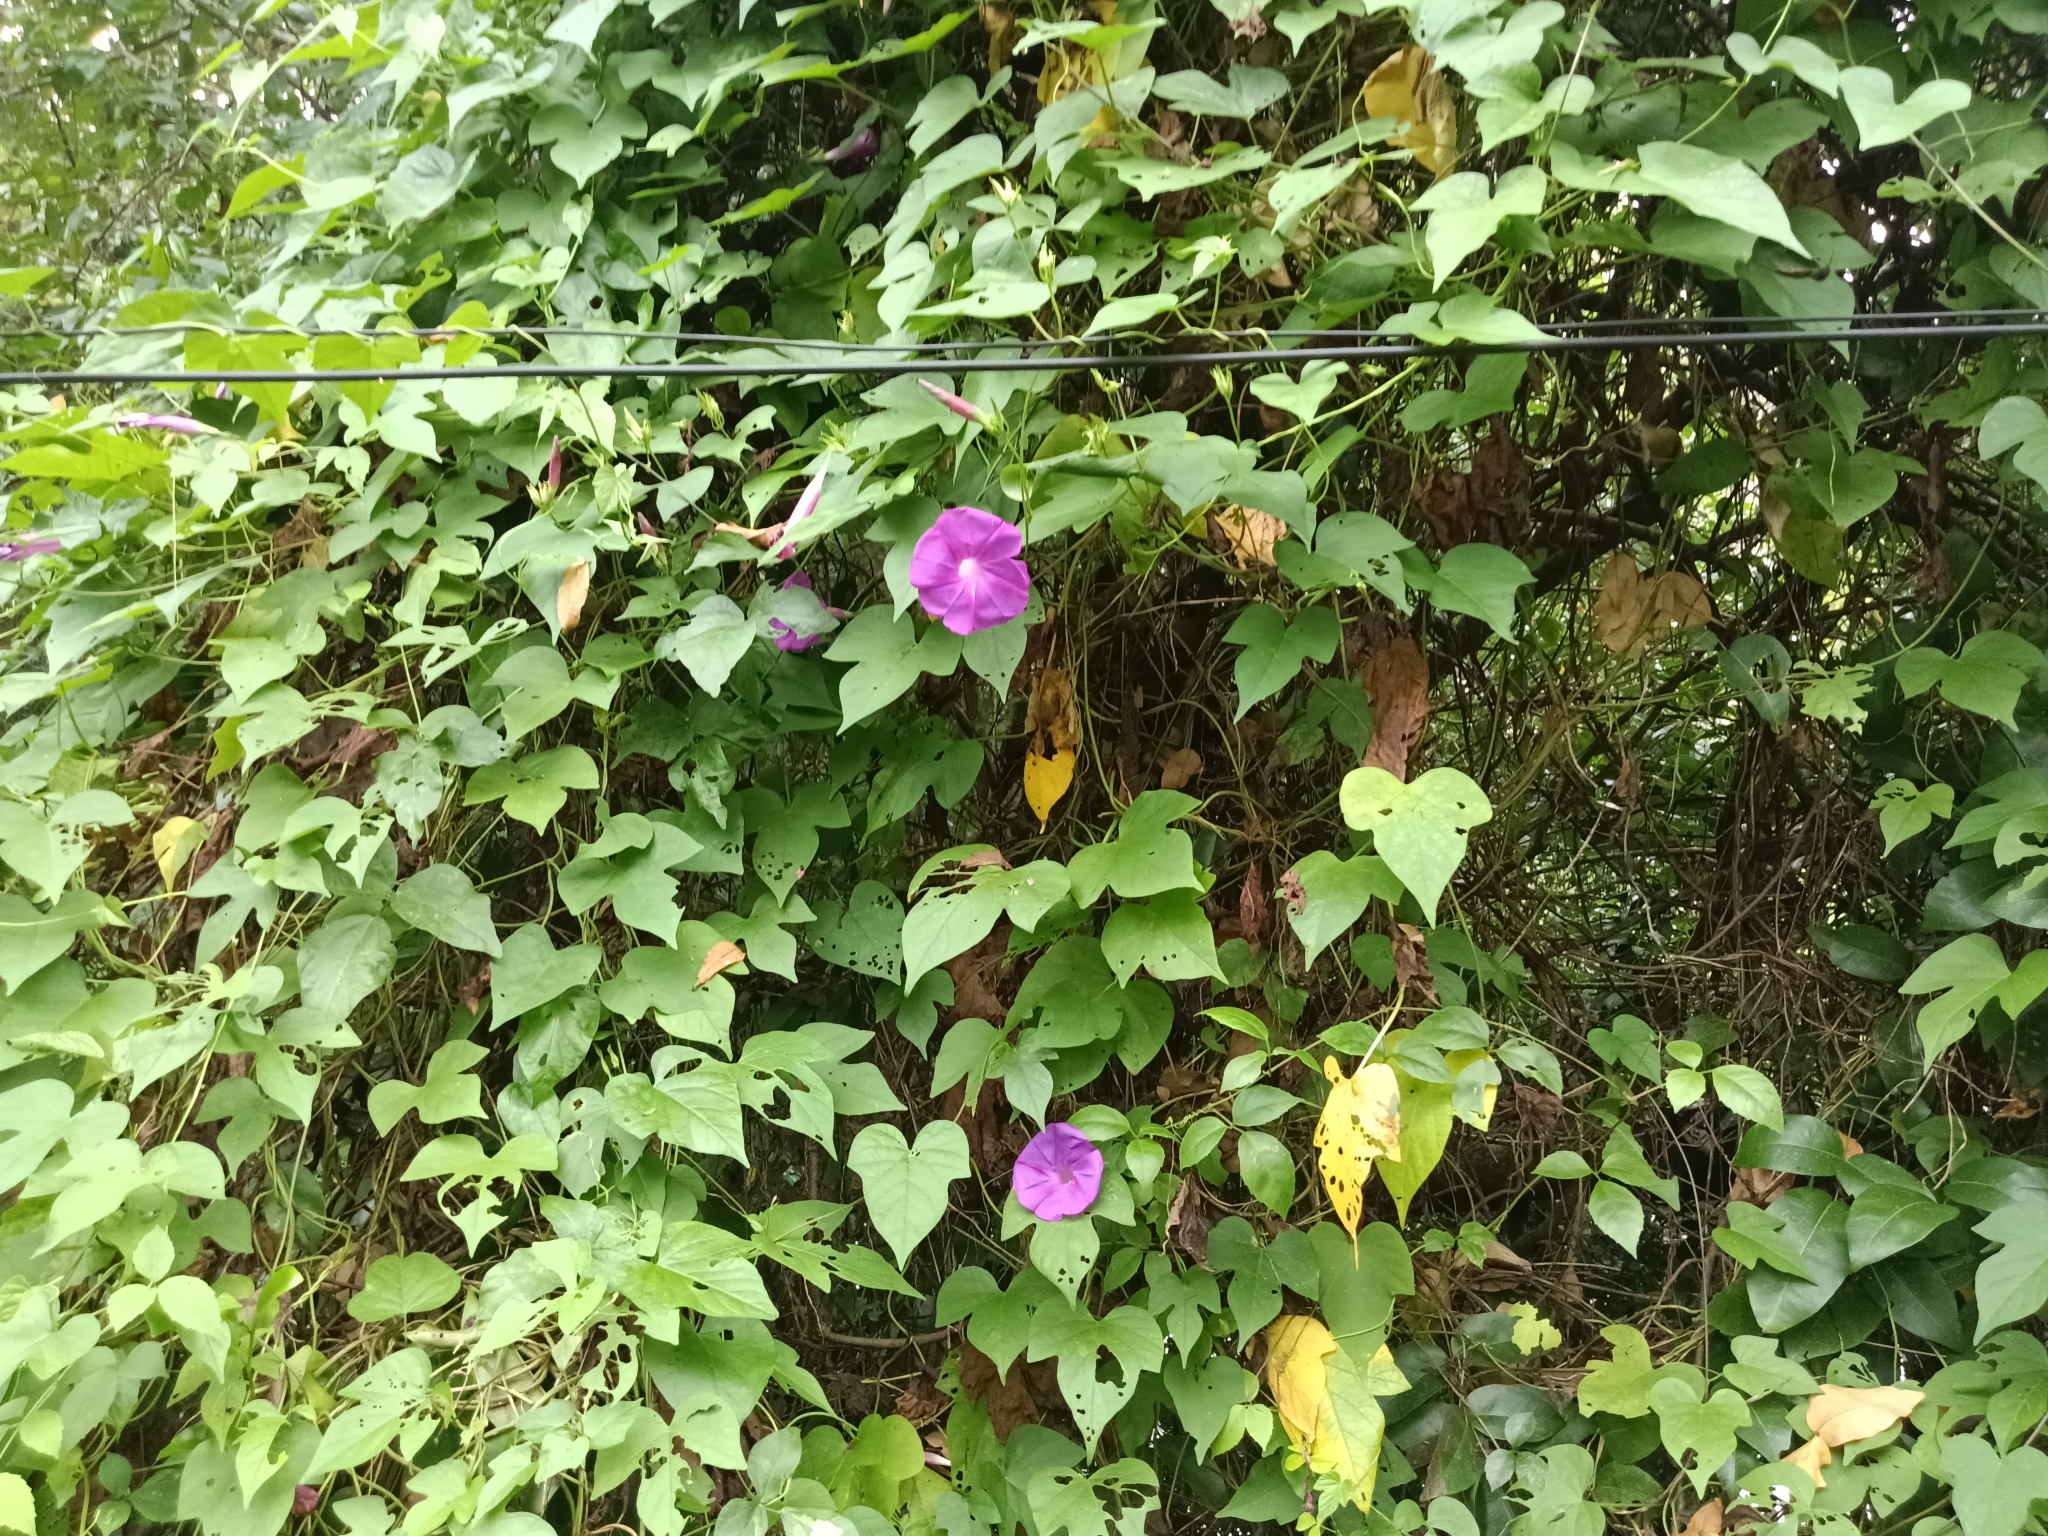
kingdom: Plantae
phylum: Tracheophyta
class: Magnoliopsida
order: Solanales
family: Convolvulaceae
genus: Ipomoea
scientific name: Ipomoea indica
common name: Blue dawnflower
